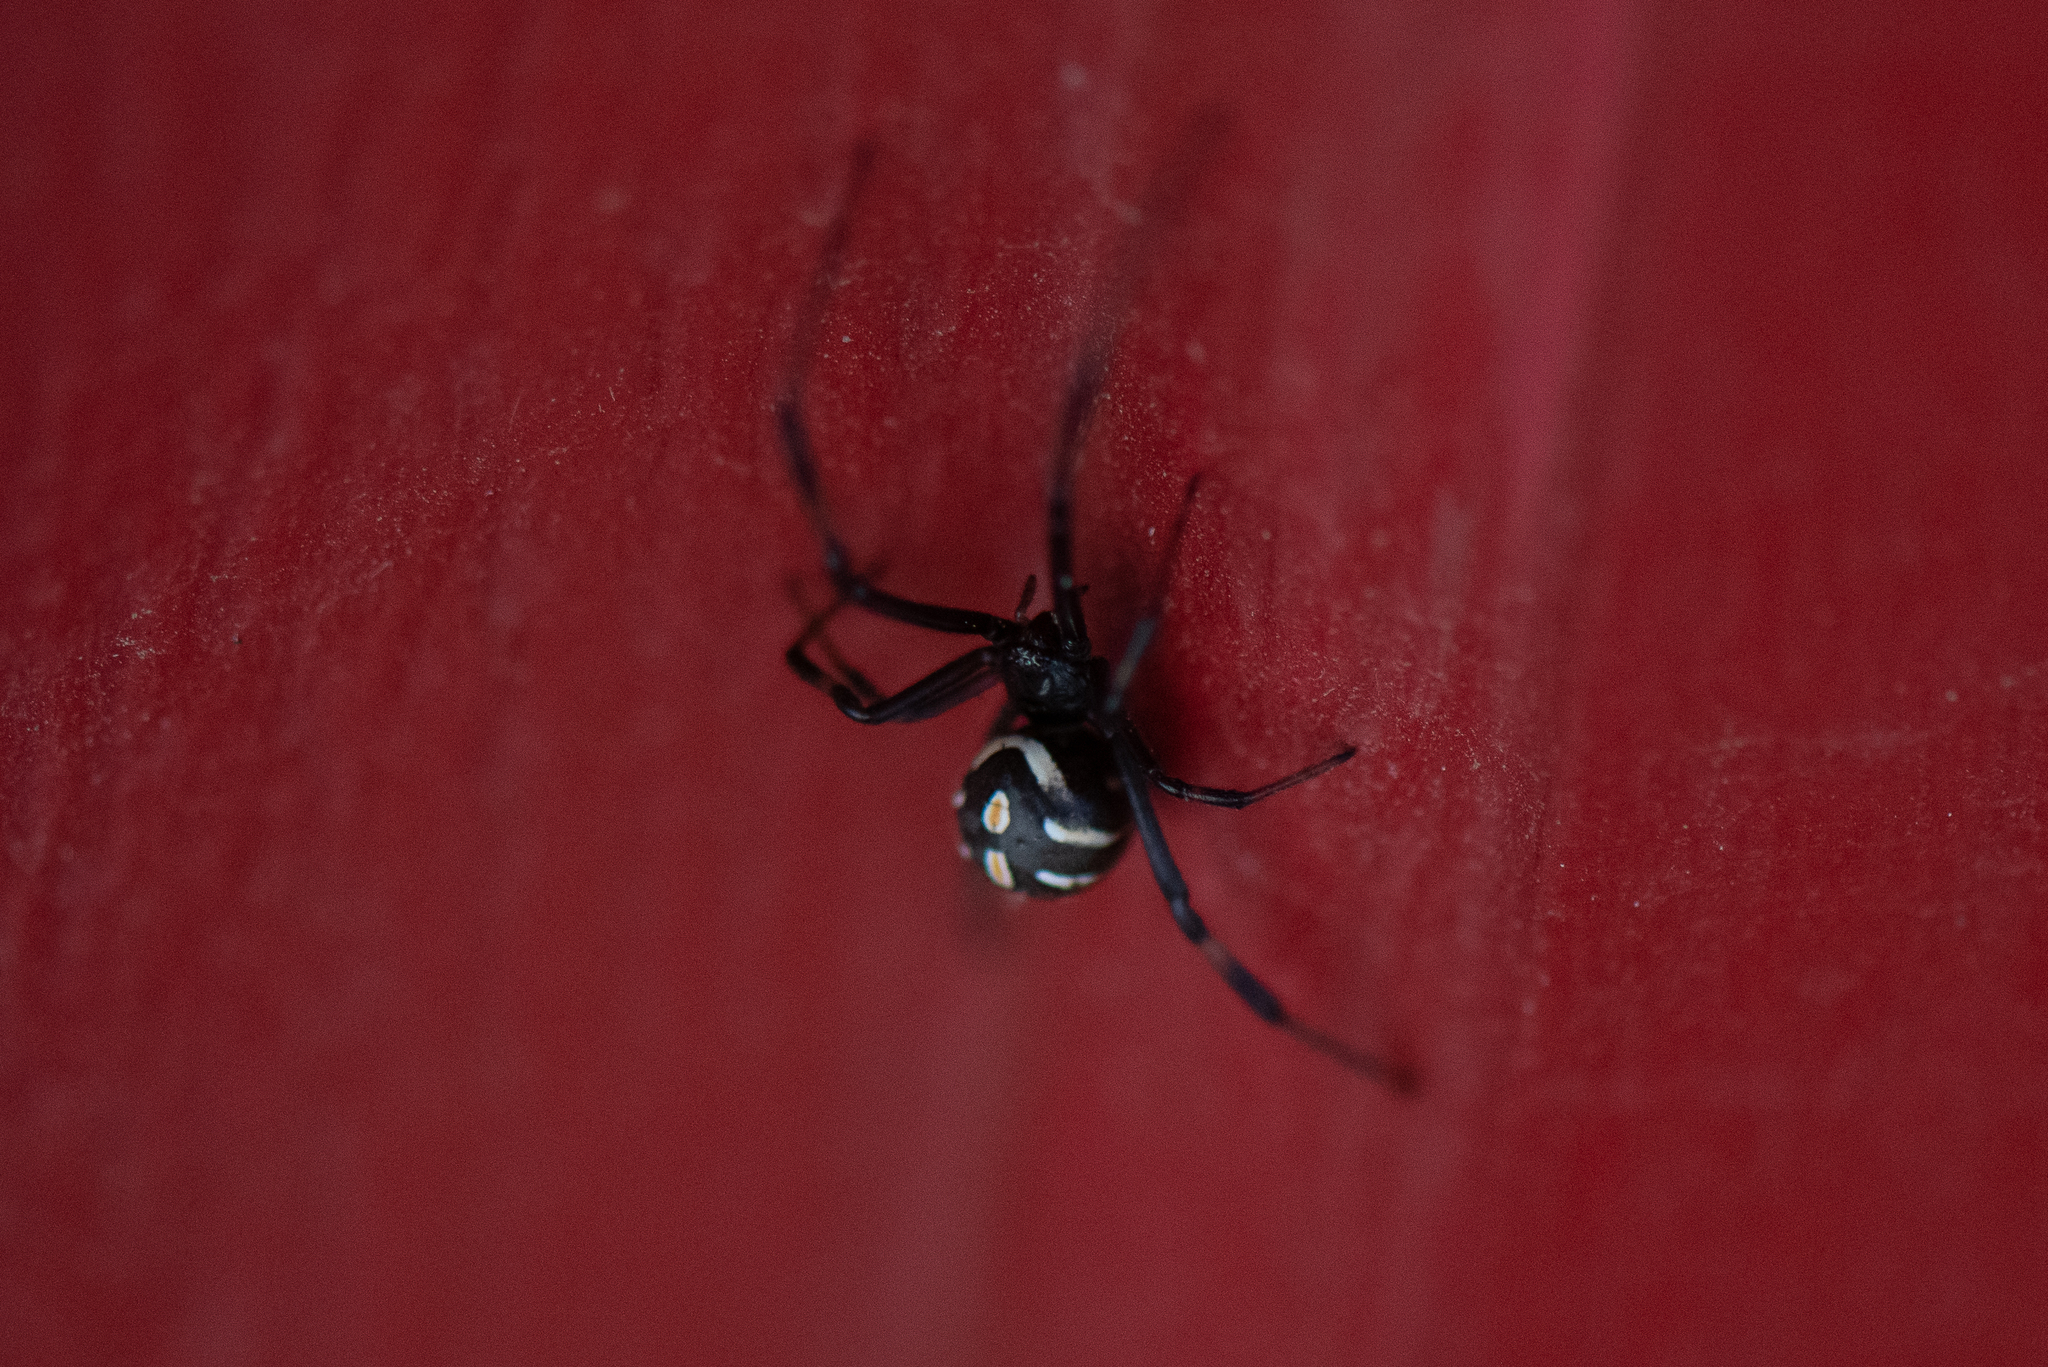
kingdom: Animalia
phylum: Arthropoda
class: Arachnida
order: Araneae
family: Theridiidae
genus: Latrodectus
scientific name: Latrodectus hesperus
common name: Western black widow
